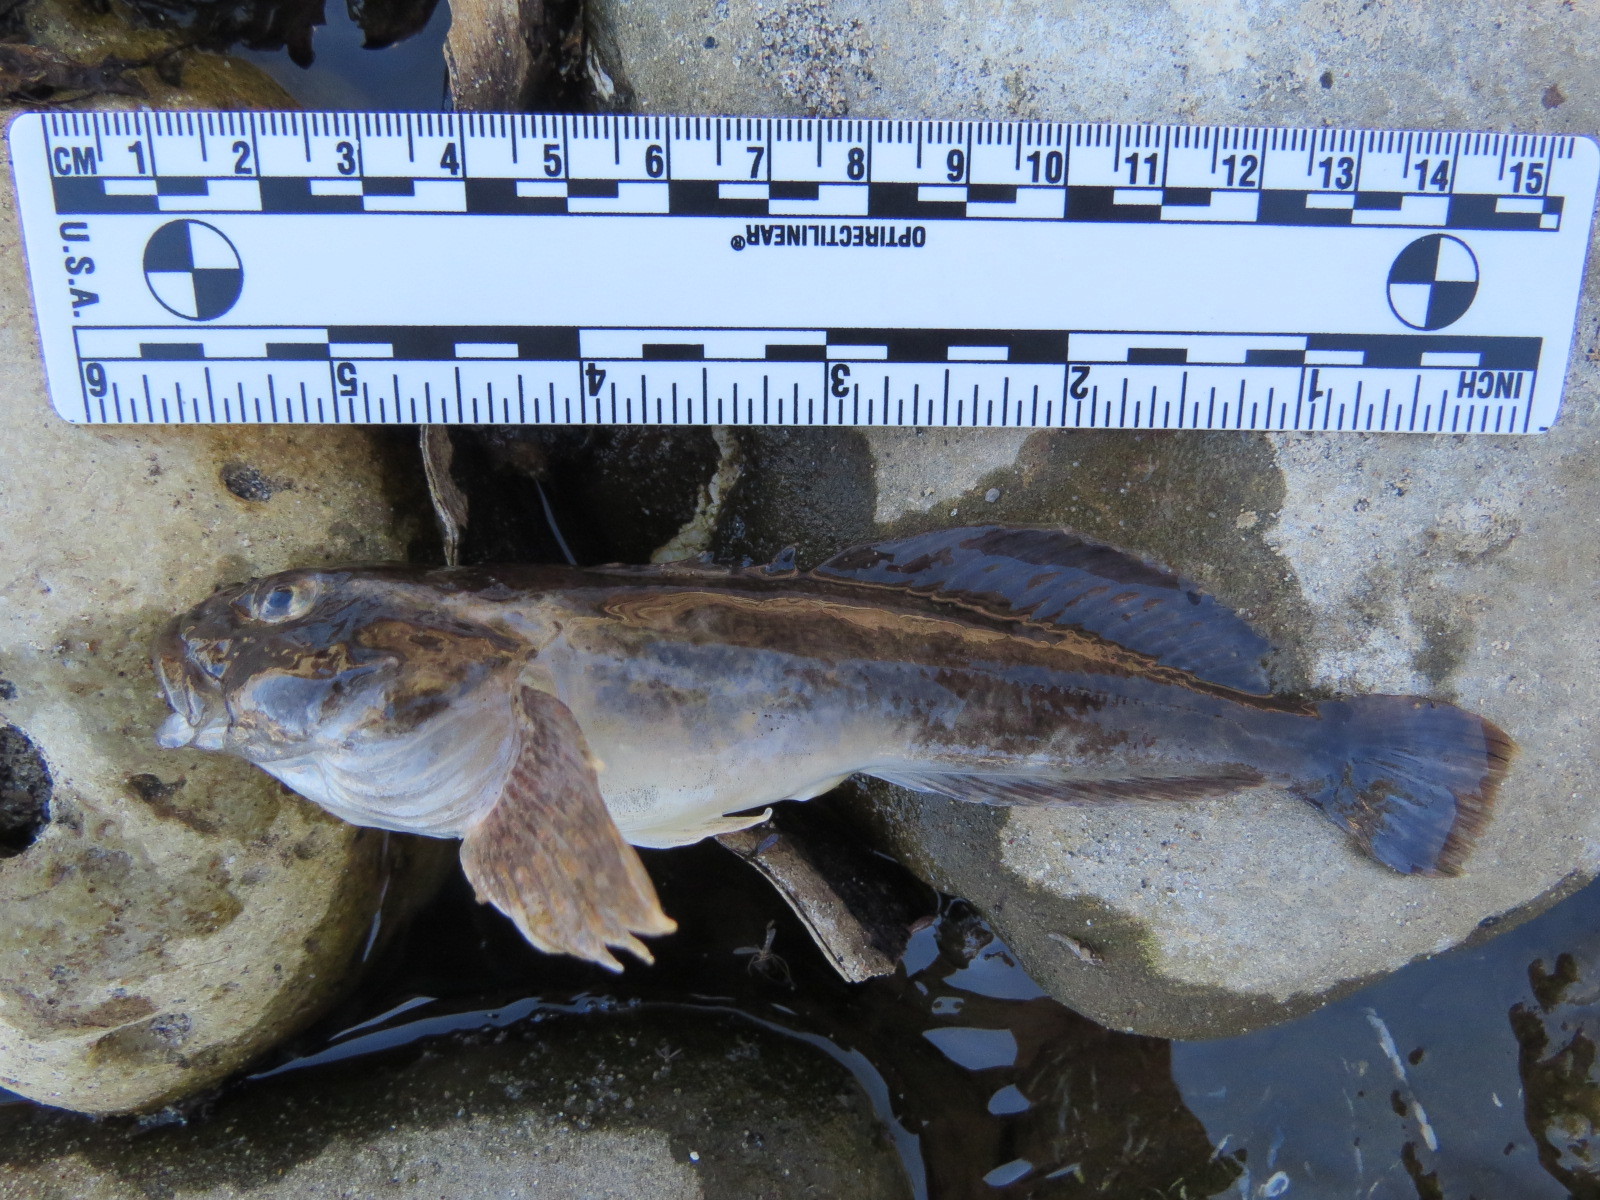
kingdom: Animalia
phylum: Chordata
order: Scorpaeniformes
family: Cottidae
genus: Cottus
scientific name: Cottus asper
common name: Prickly sculpin
